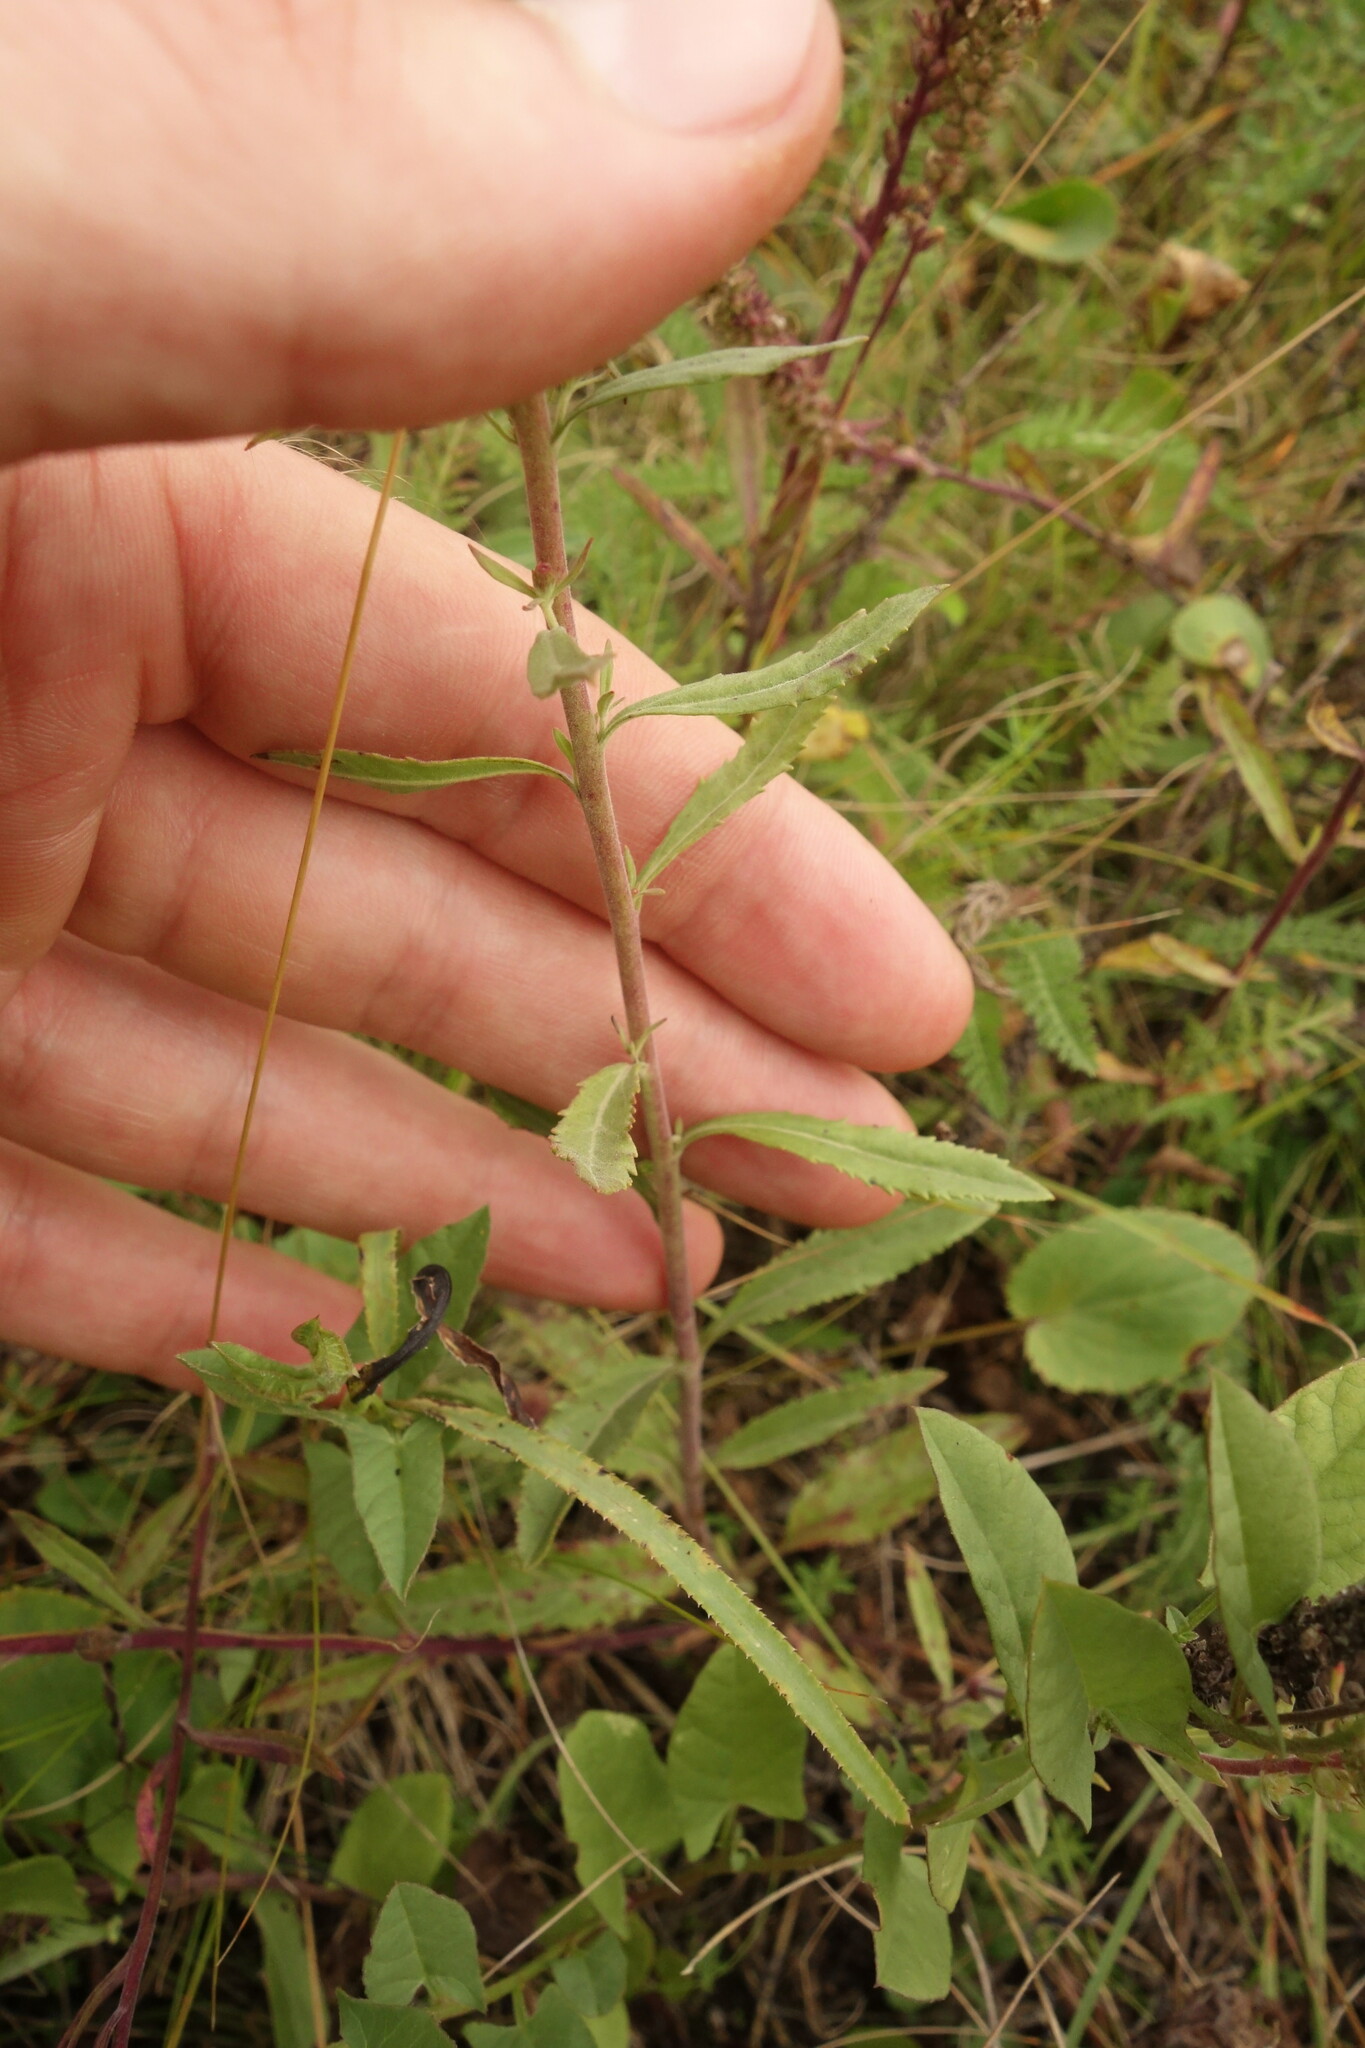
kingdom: Plantae
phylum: Tracheophyta
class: Magnoliopsida
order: Lamiales
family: Plantaginaceae
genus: Veronica
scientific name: Veronica spicata
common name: Spiked speedwell
